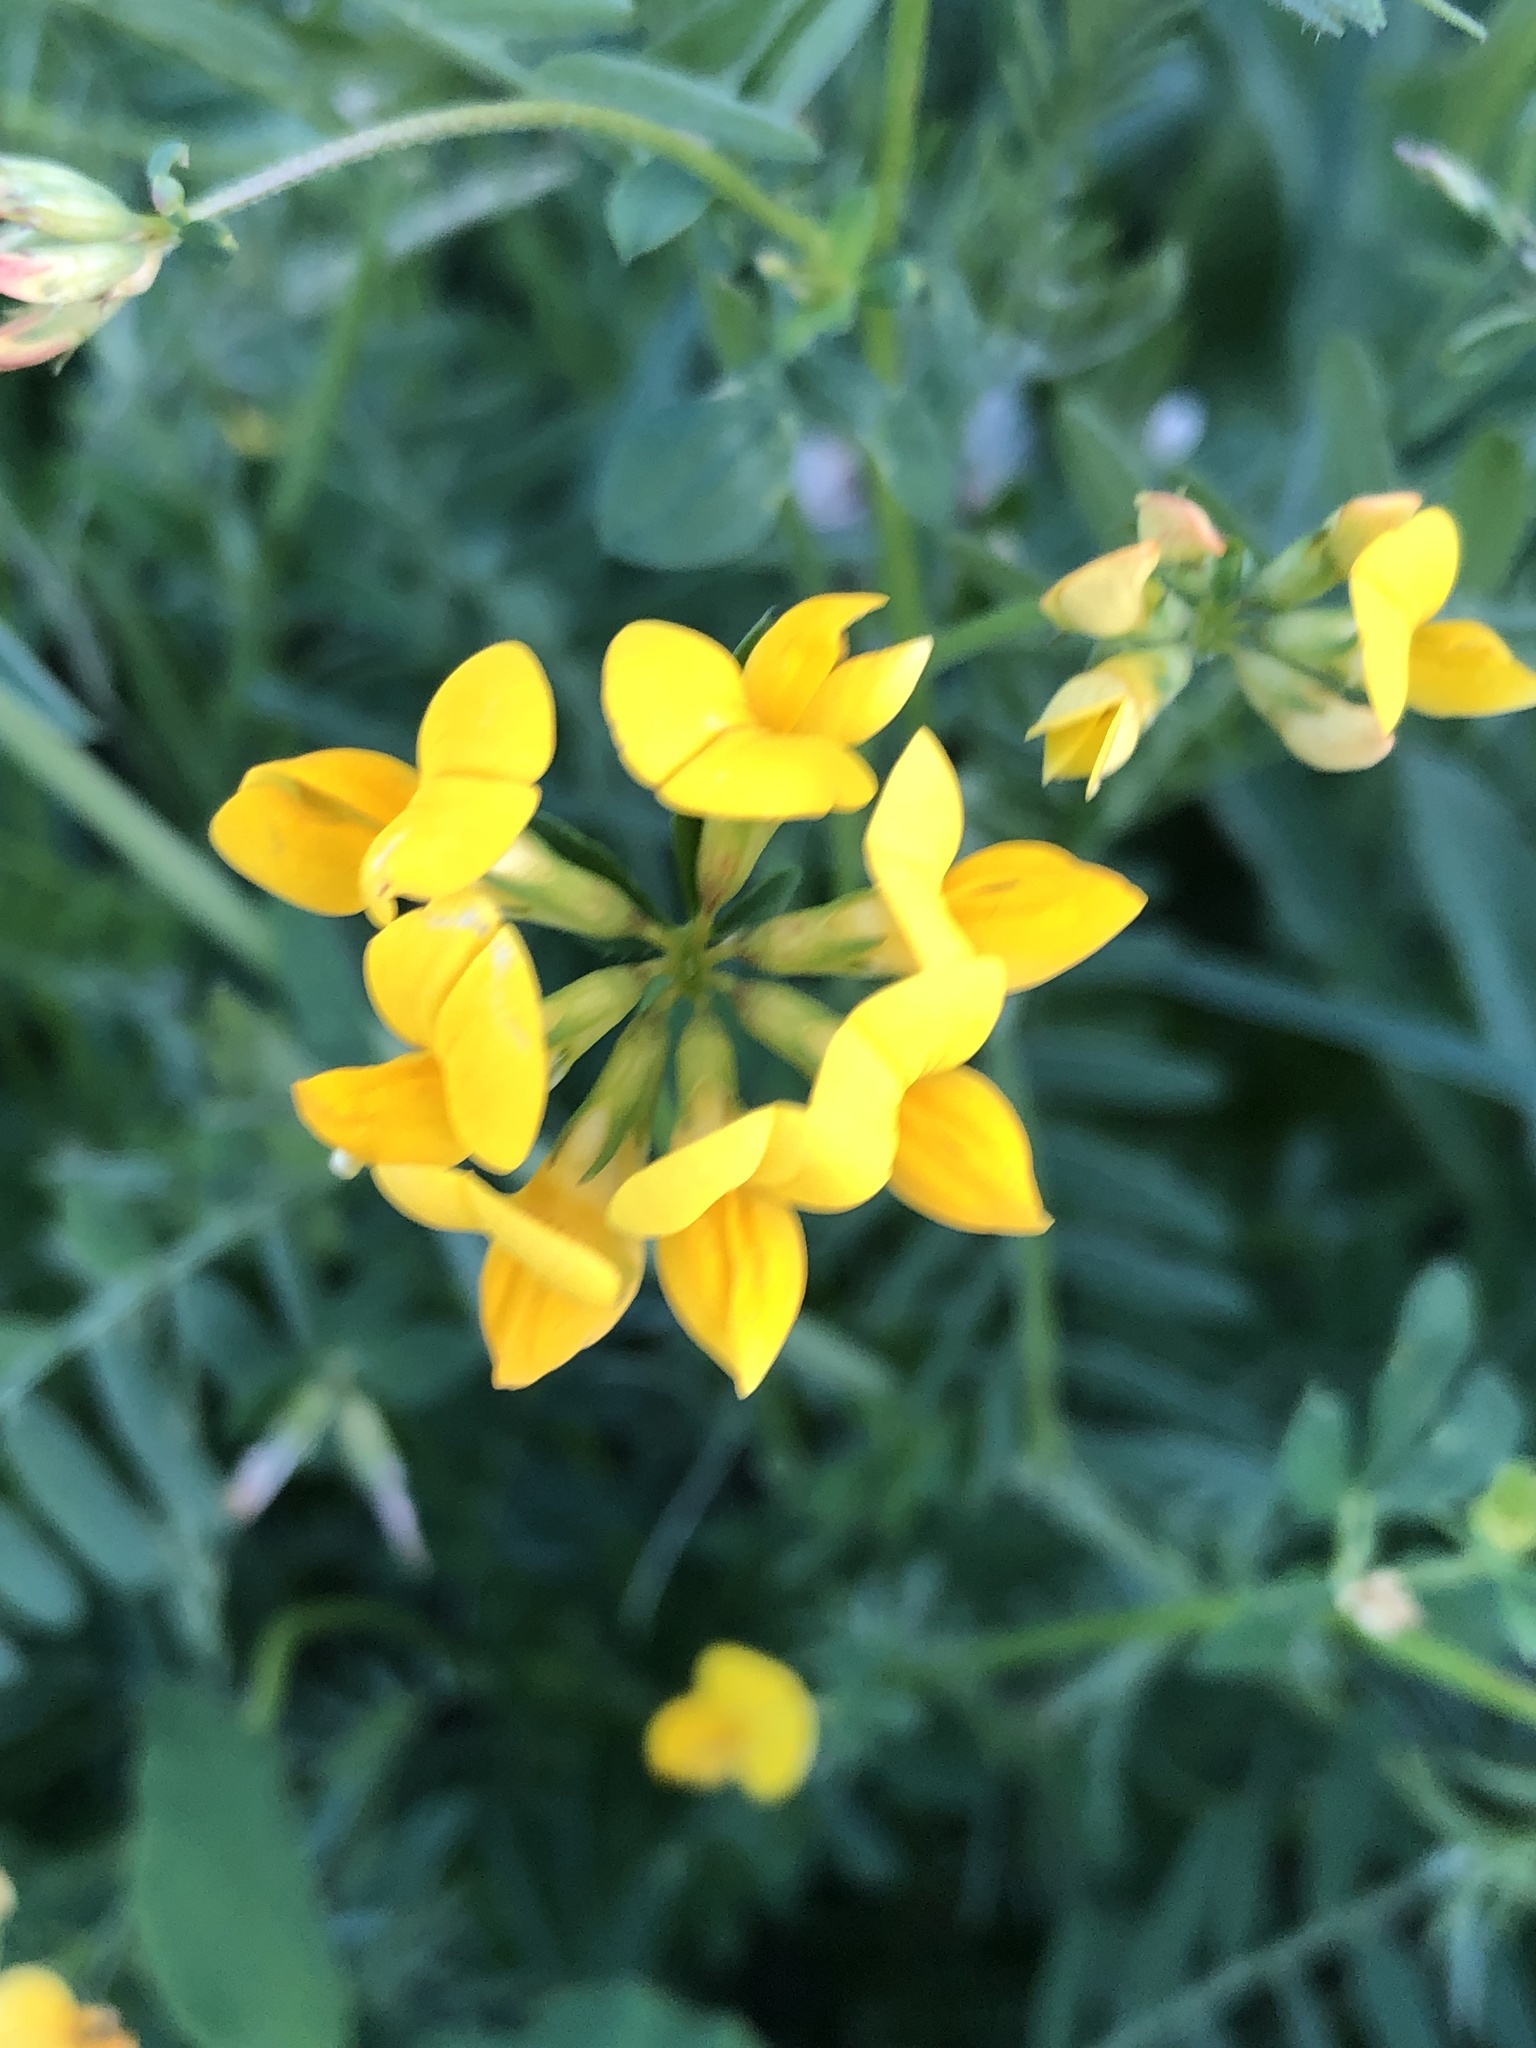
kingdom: Plantae
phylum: Tracheophyta
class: Magnoliopsida
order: Fabales
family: Fabaceae
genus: Lotus
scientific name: Lotus corniculatus
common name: Common bird's-foot-trefoil
